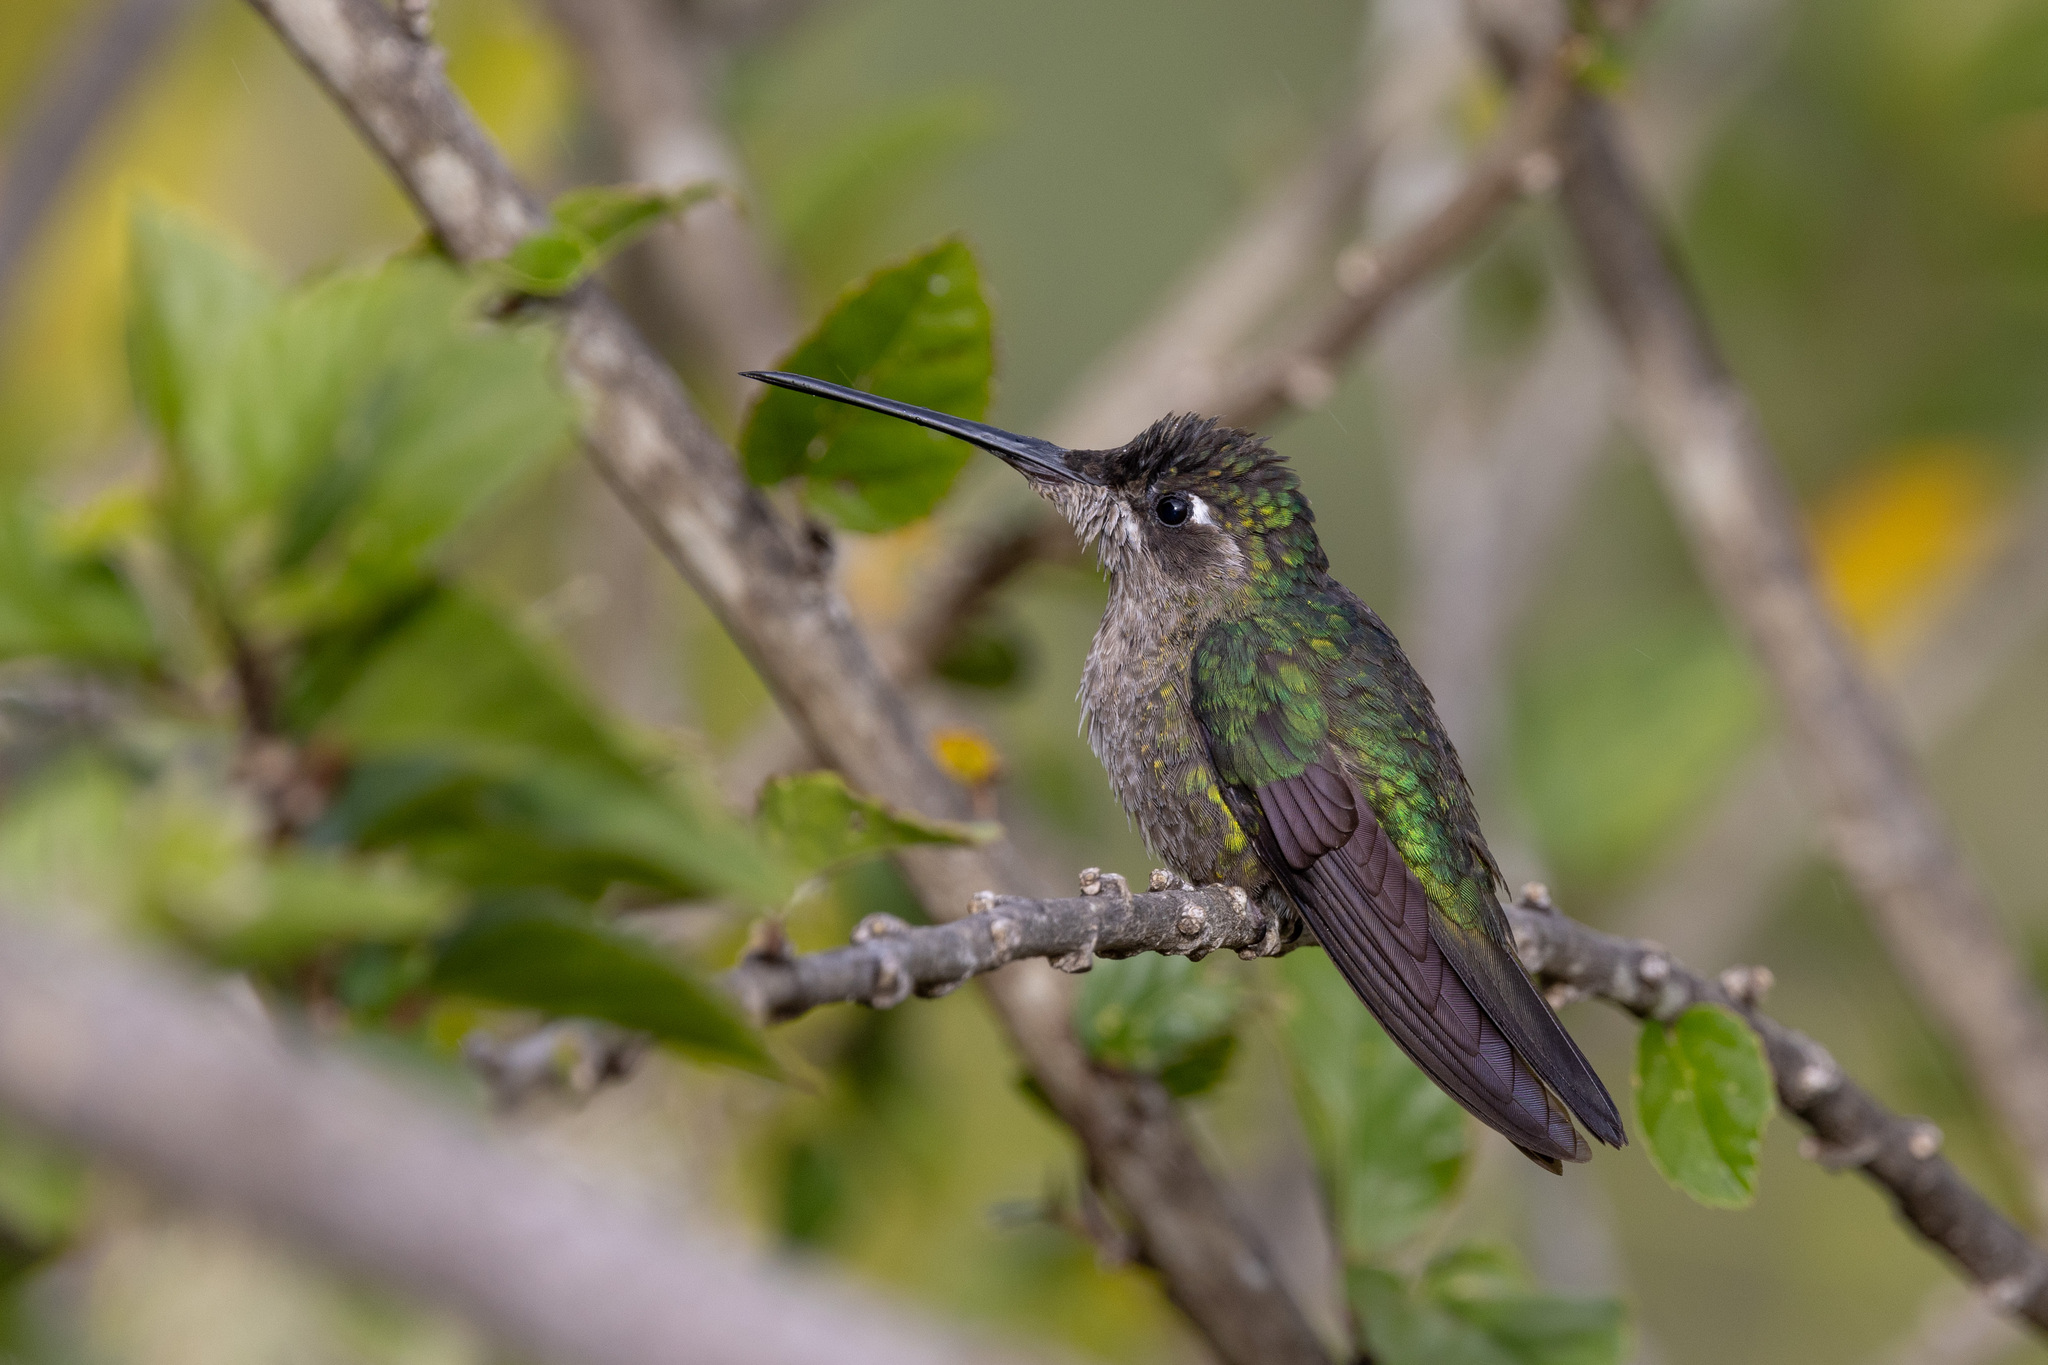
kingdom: Animalia
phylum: Chordata
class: Aves
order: Apodiformes
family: Trochilidae
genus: Eugenes
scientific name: Eugenes spectabilis
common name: Talamanca hummingbird
